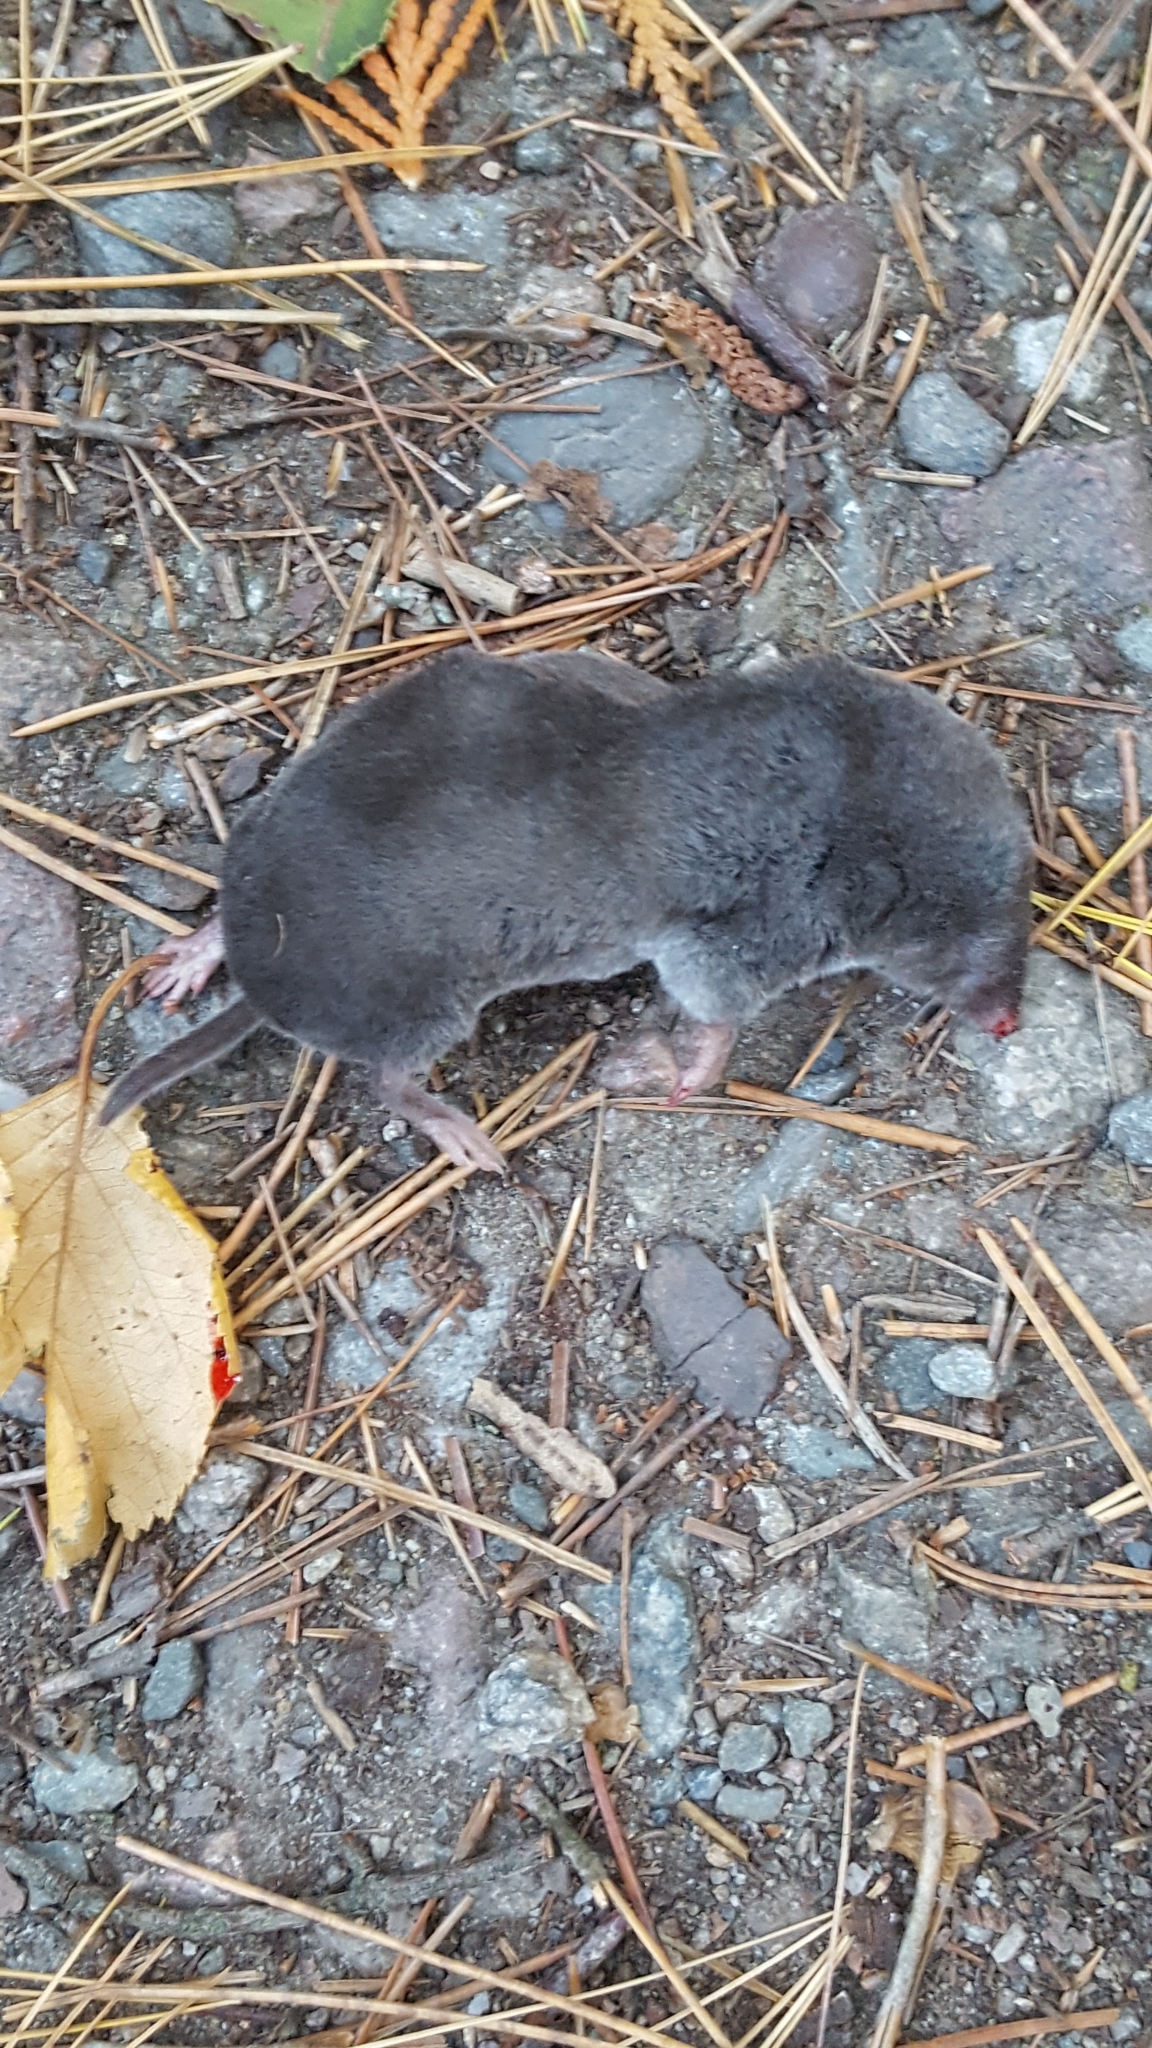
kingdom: Animalia
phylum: Chordata
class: Mammalia
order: Soricomorpha
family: Soricidae
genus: Blarina
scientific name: Blarina brevicauda
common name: Northern short-tailed shrew
